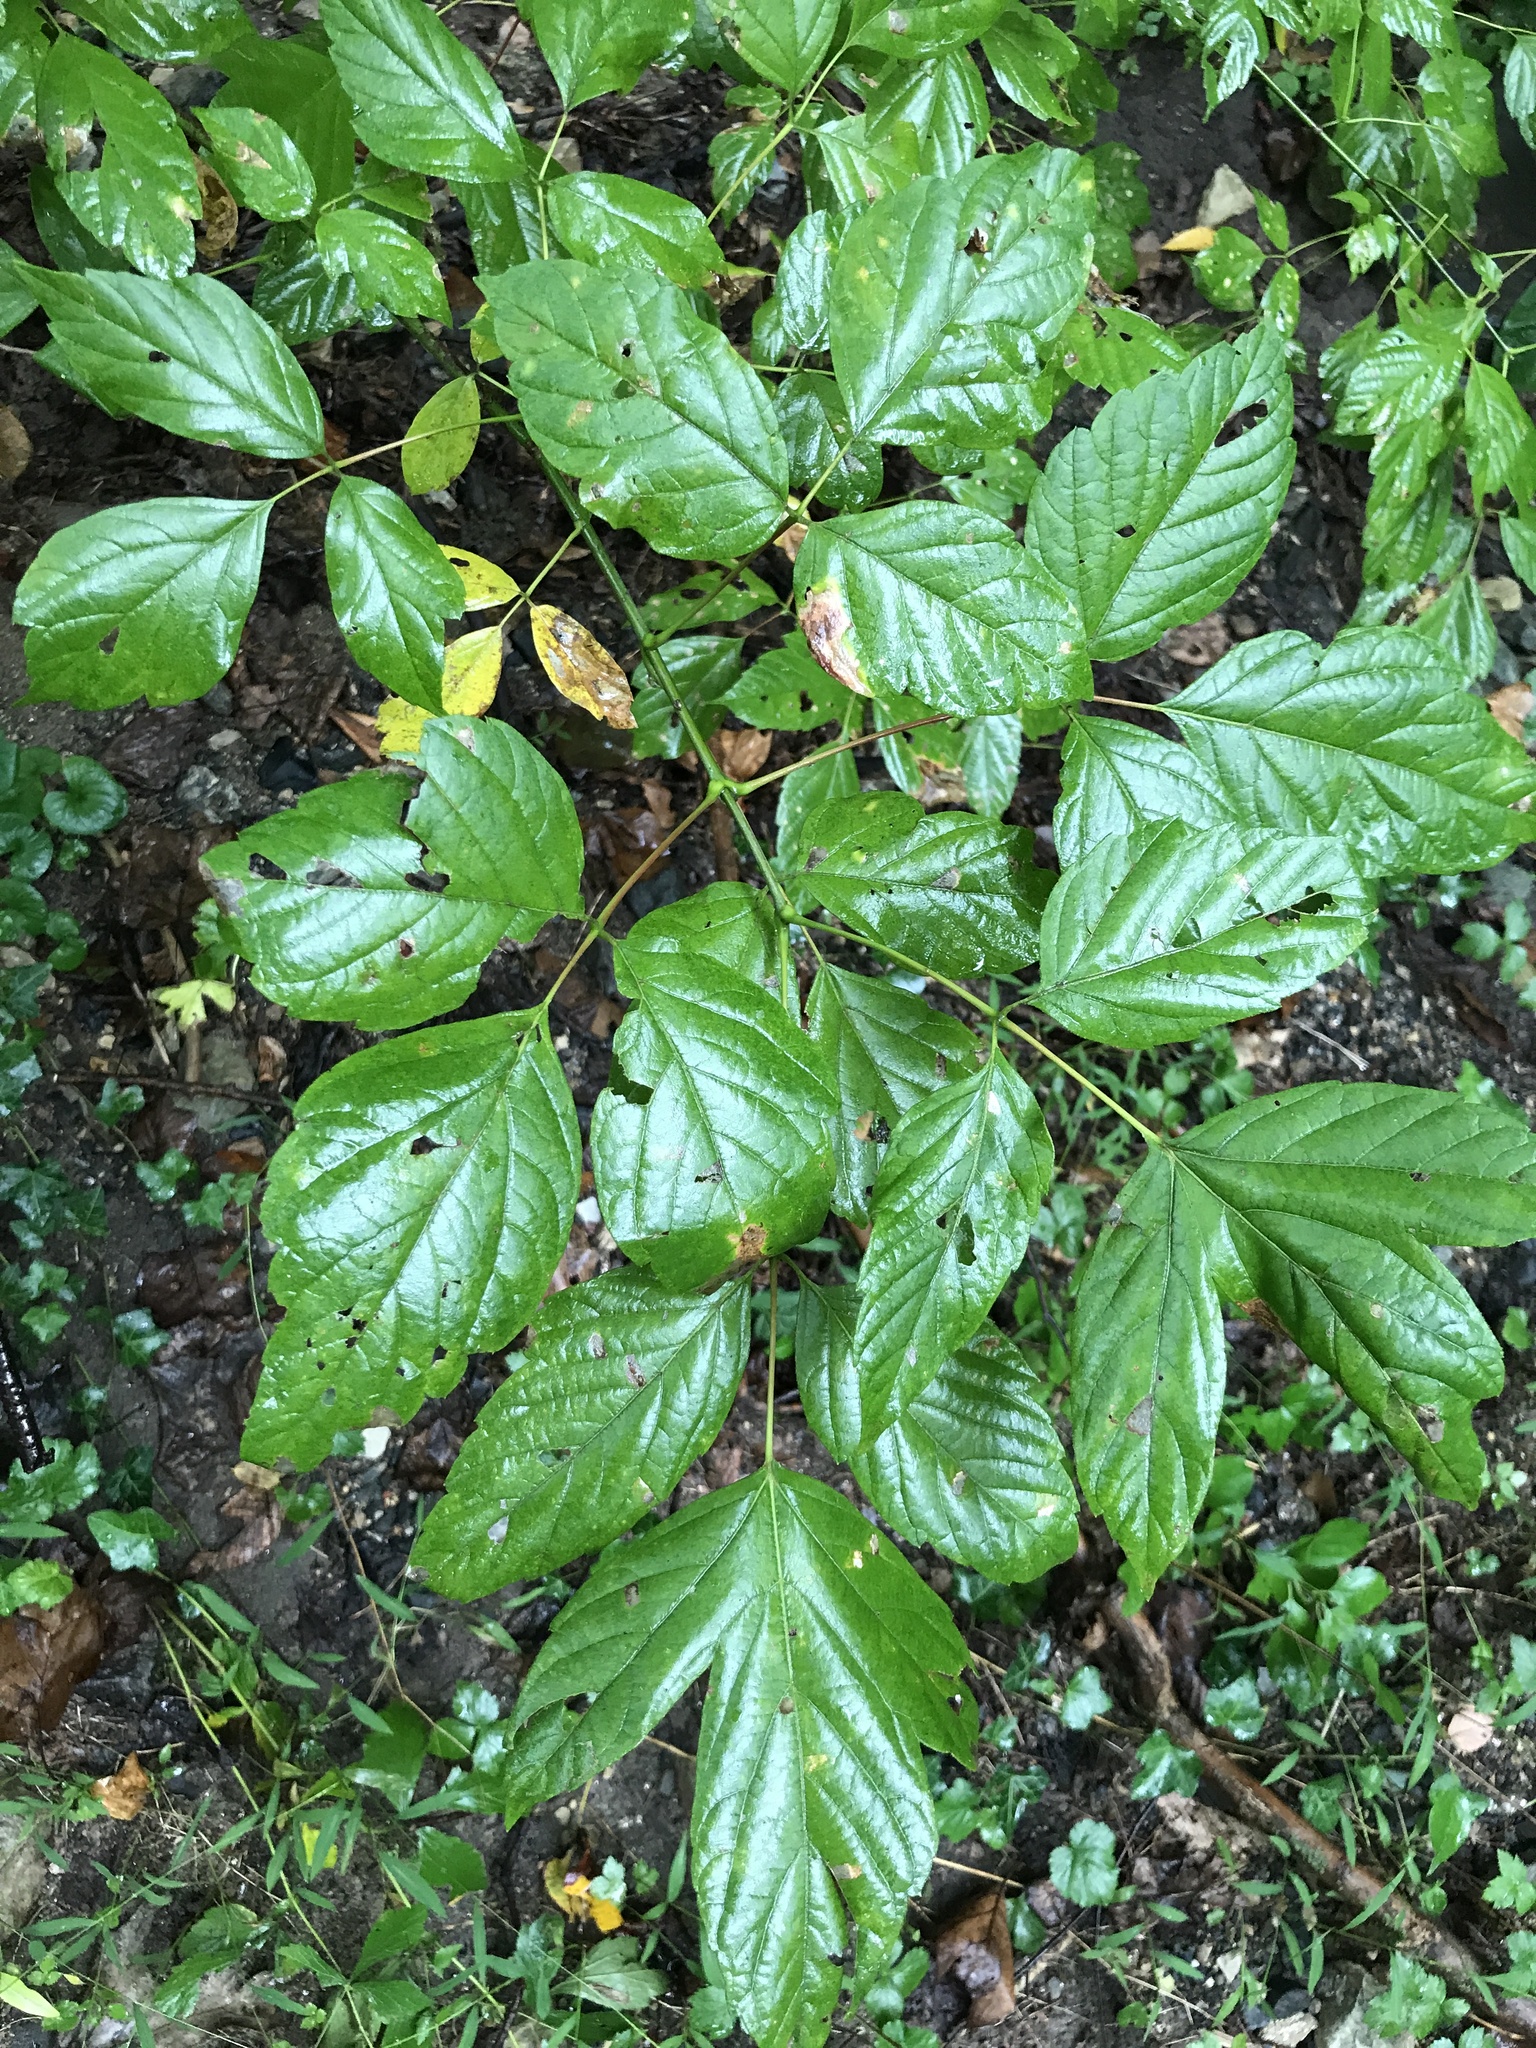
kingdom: Plantae
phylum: Tracheophyta
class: Magnoliopsida
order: Sapindales
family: Sapindaceae
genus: Acer
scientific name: Acer negundo
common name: Ashleaf maple
